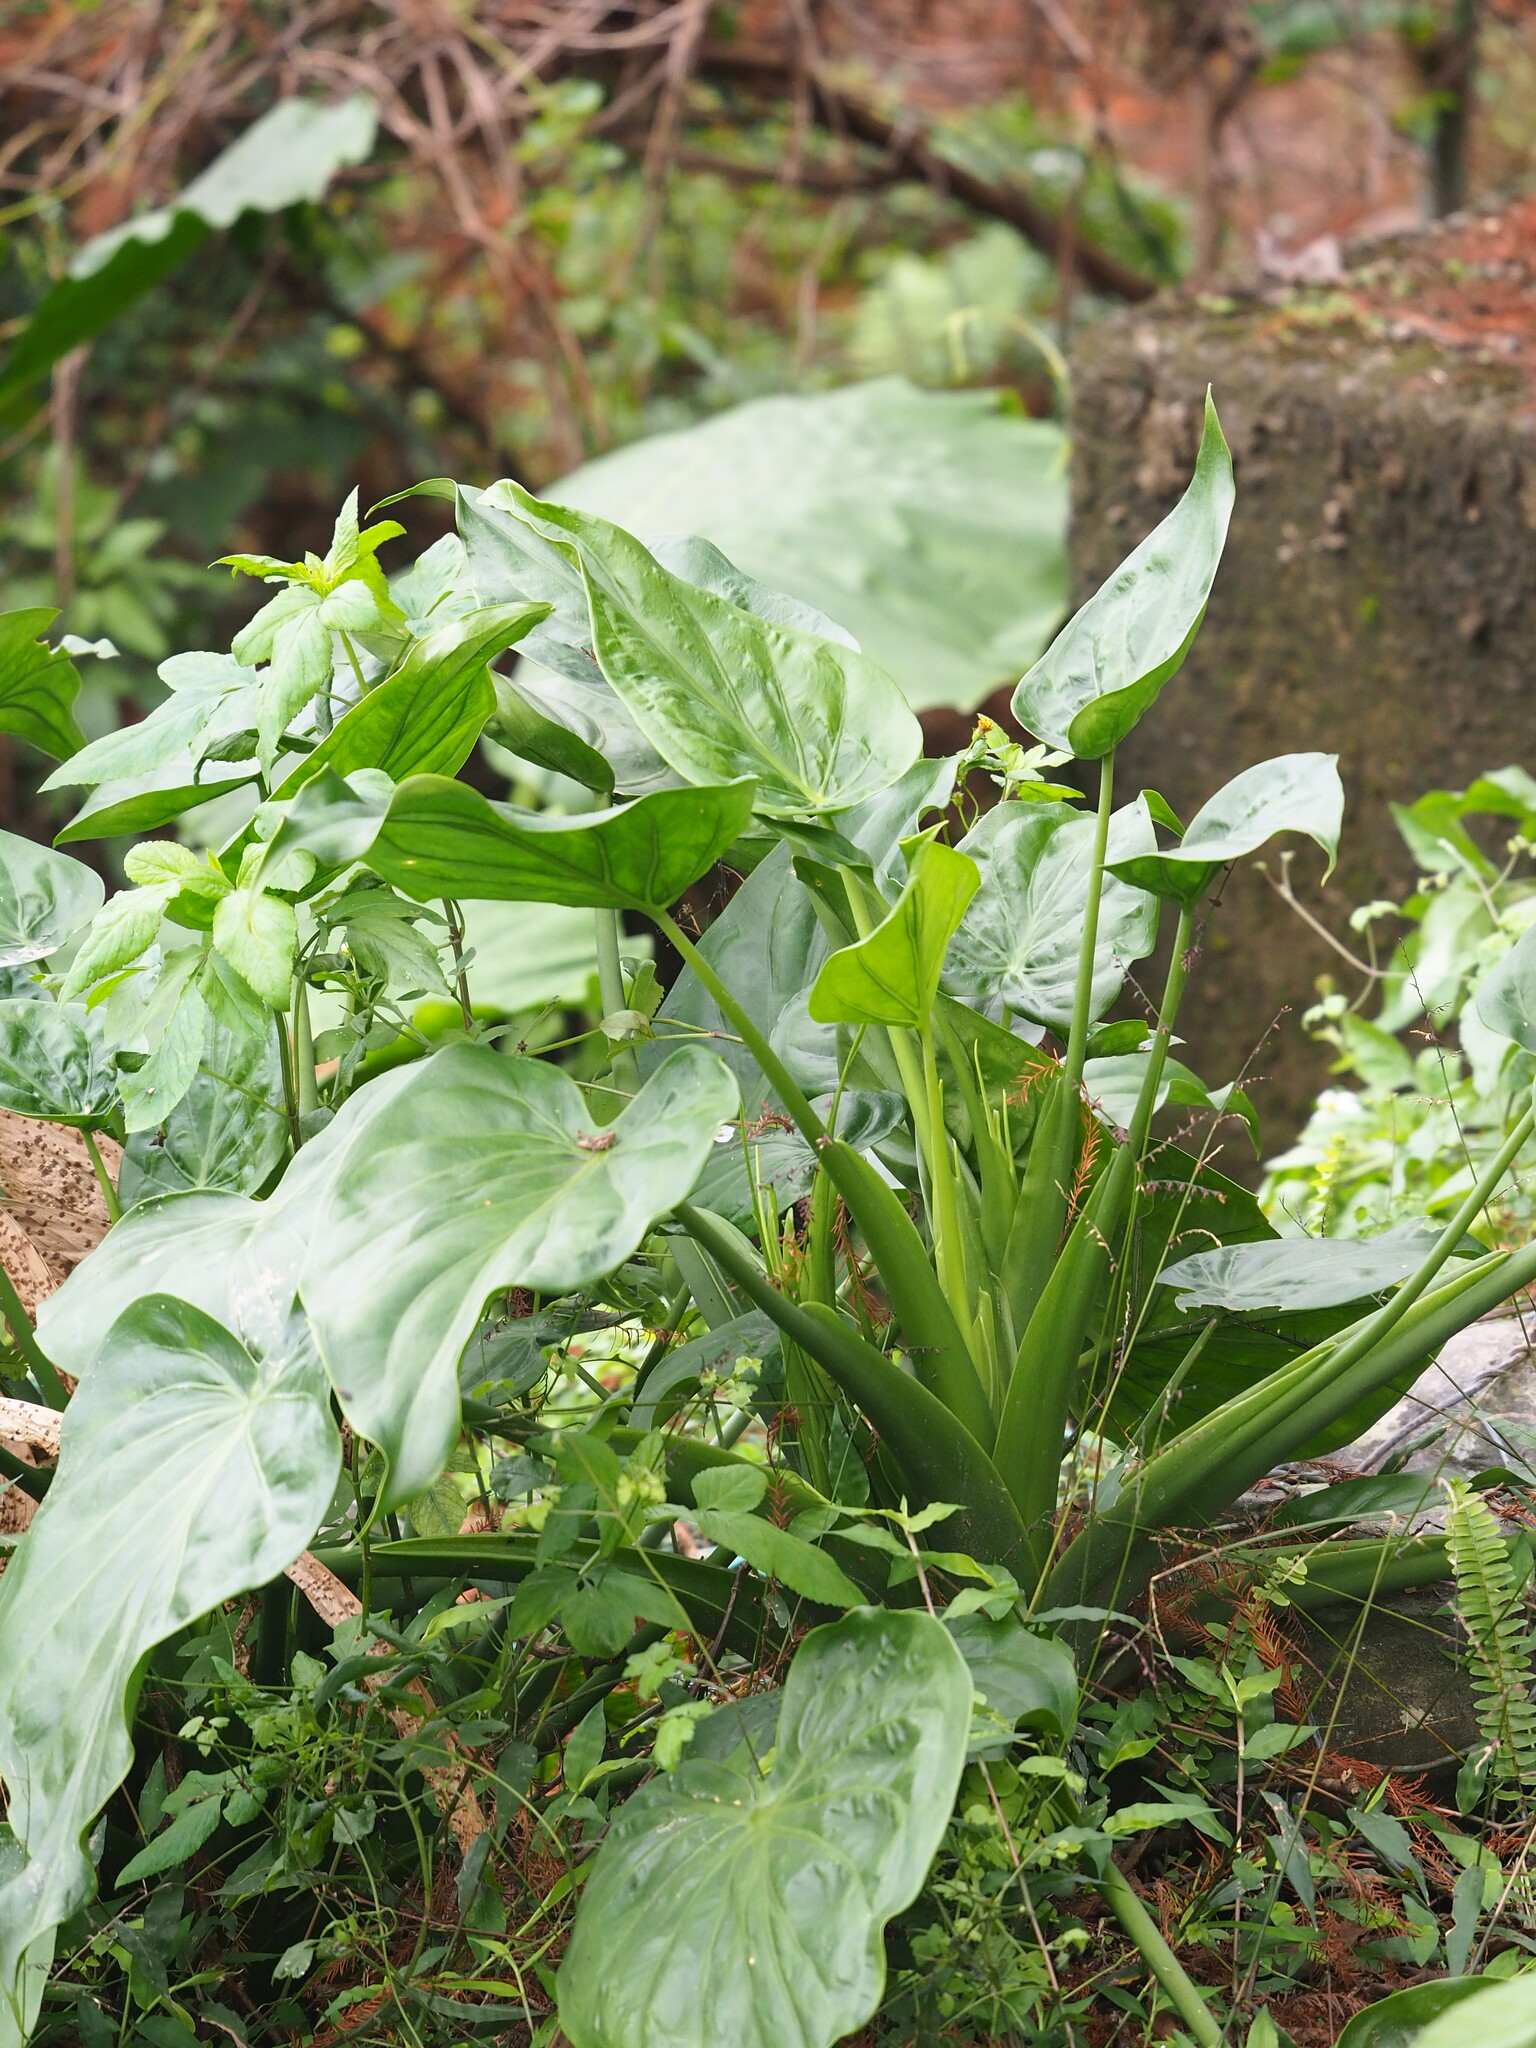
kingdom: Plantae
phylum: Tracheophyta
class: Liliopsida
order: Alismatales
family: Araceae
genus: Alocasia
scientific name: Alocasia cucullata
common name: Buddha's hand
